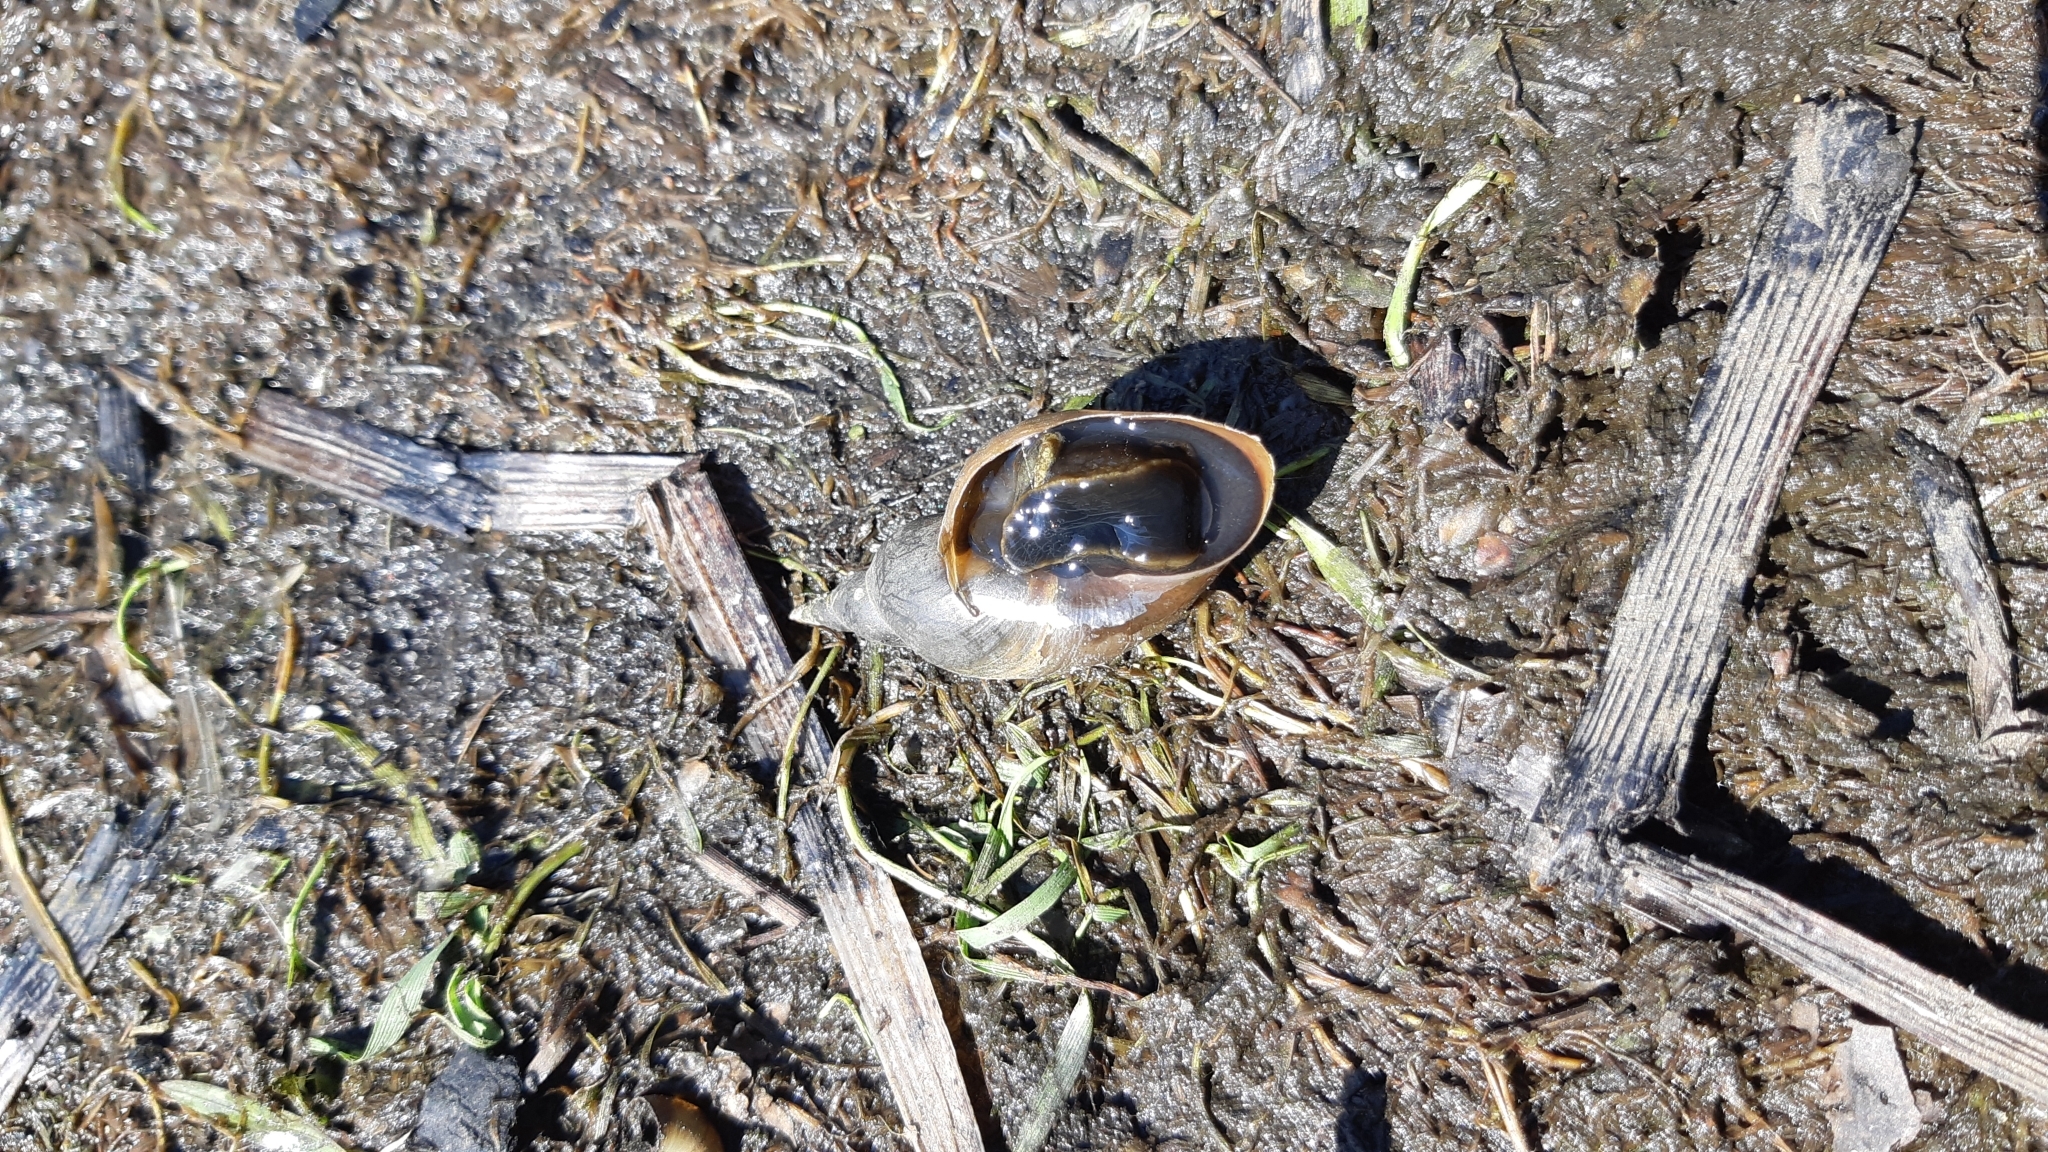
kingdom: Animalia
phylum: Mollusca
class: Gastropoda
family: Lymnaeidae
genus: Lymnaea
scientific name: Lymnaea stagnalis
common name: Great pond snail
